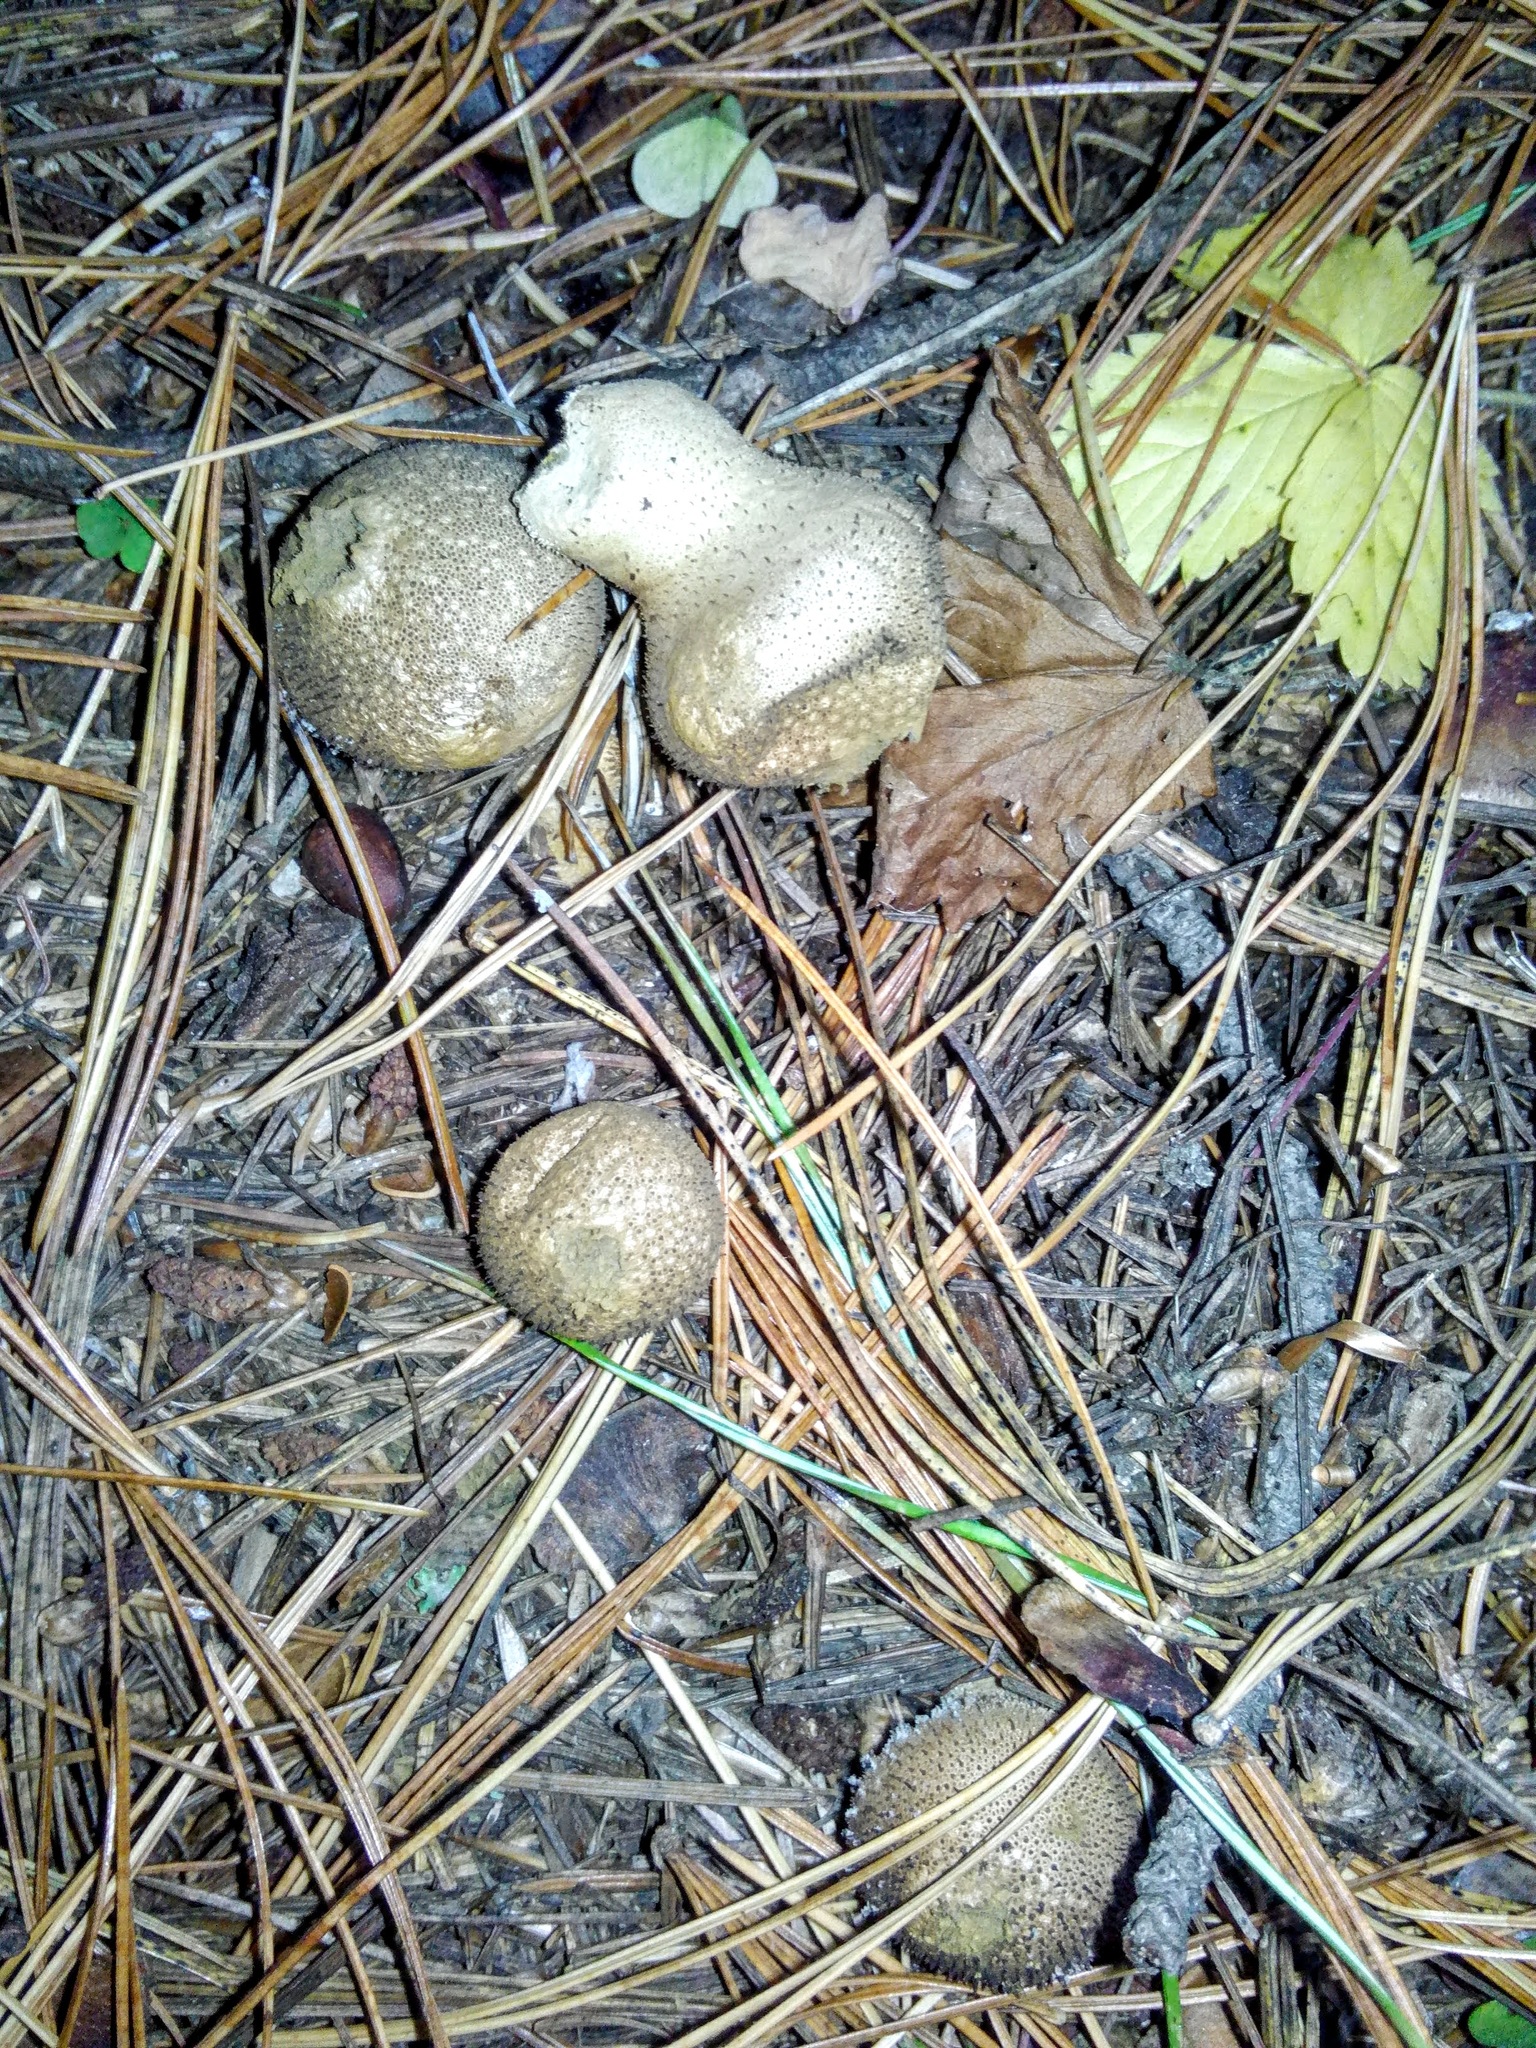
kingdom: Fungi
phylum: Basidiomycota
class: Agaricomycetes
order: Agaricales
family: Lycoperdaceae
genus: Lycoperdon
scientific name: Lycoperdon perlatum
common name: Common puffball
